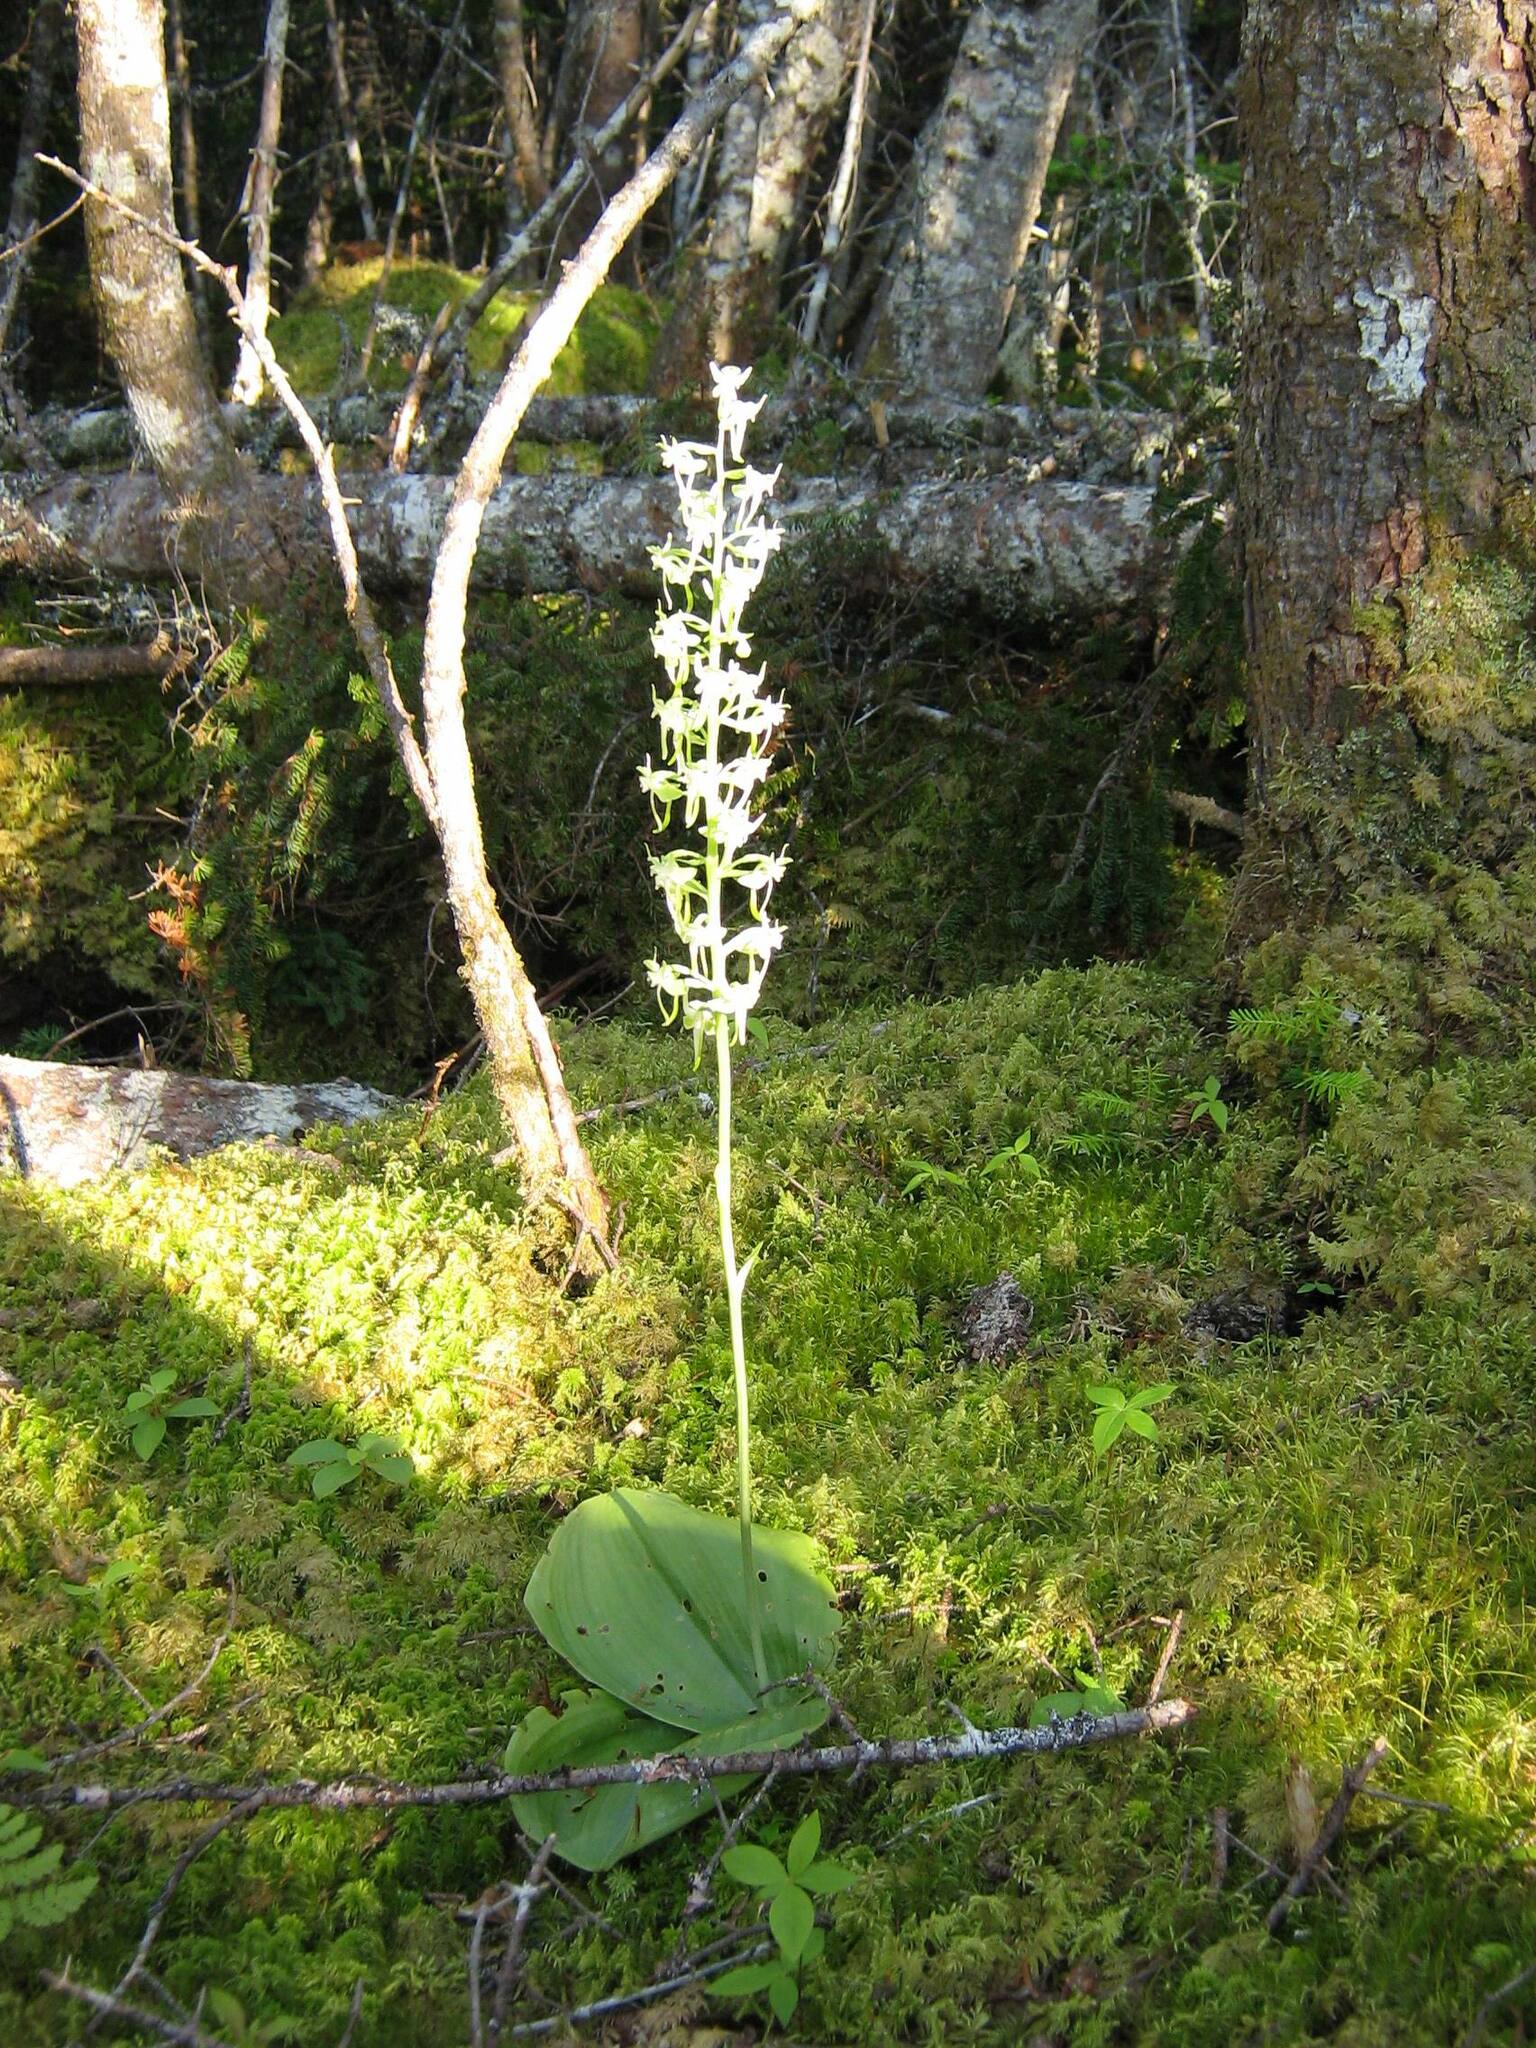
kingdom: Plantae
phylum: Tracheophyta
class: Liliopsida
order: Asparagales
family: Orchidaceae
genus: Platanthera
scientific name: Platanthera orbiculata
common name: Large round-leaved orchid
